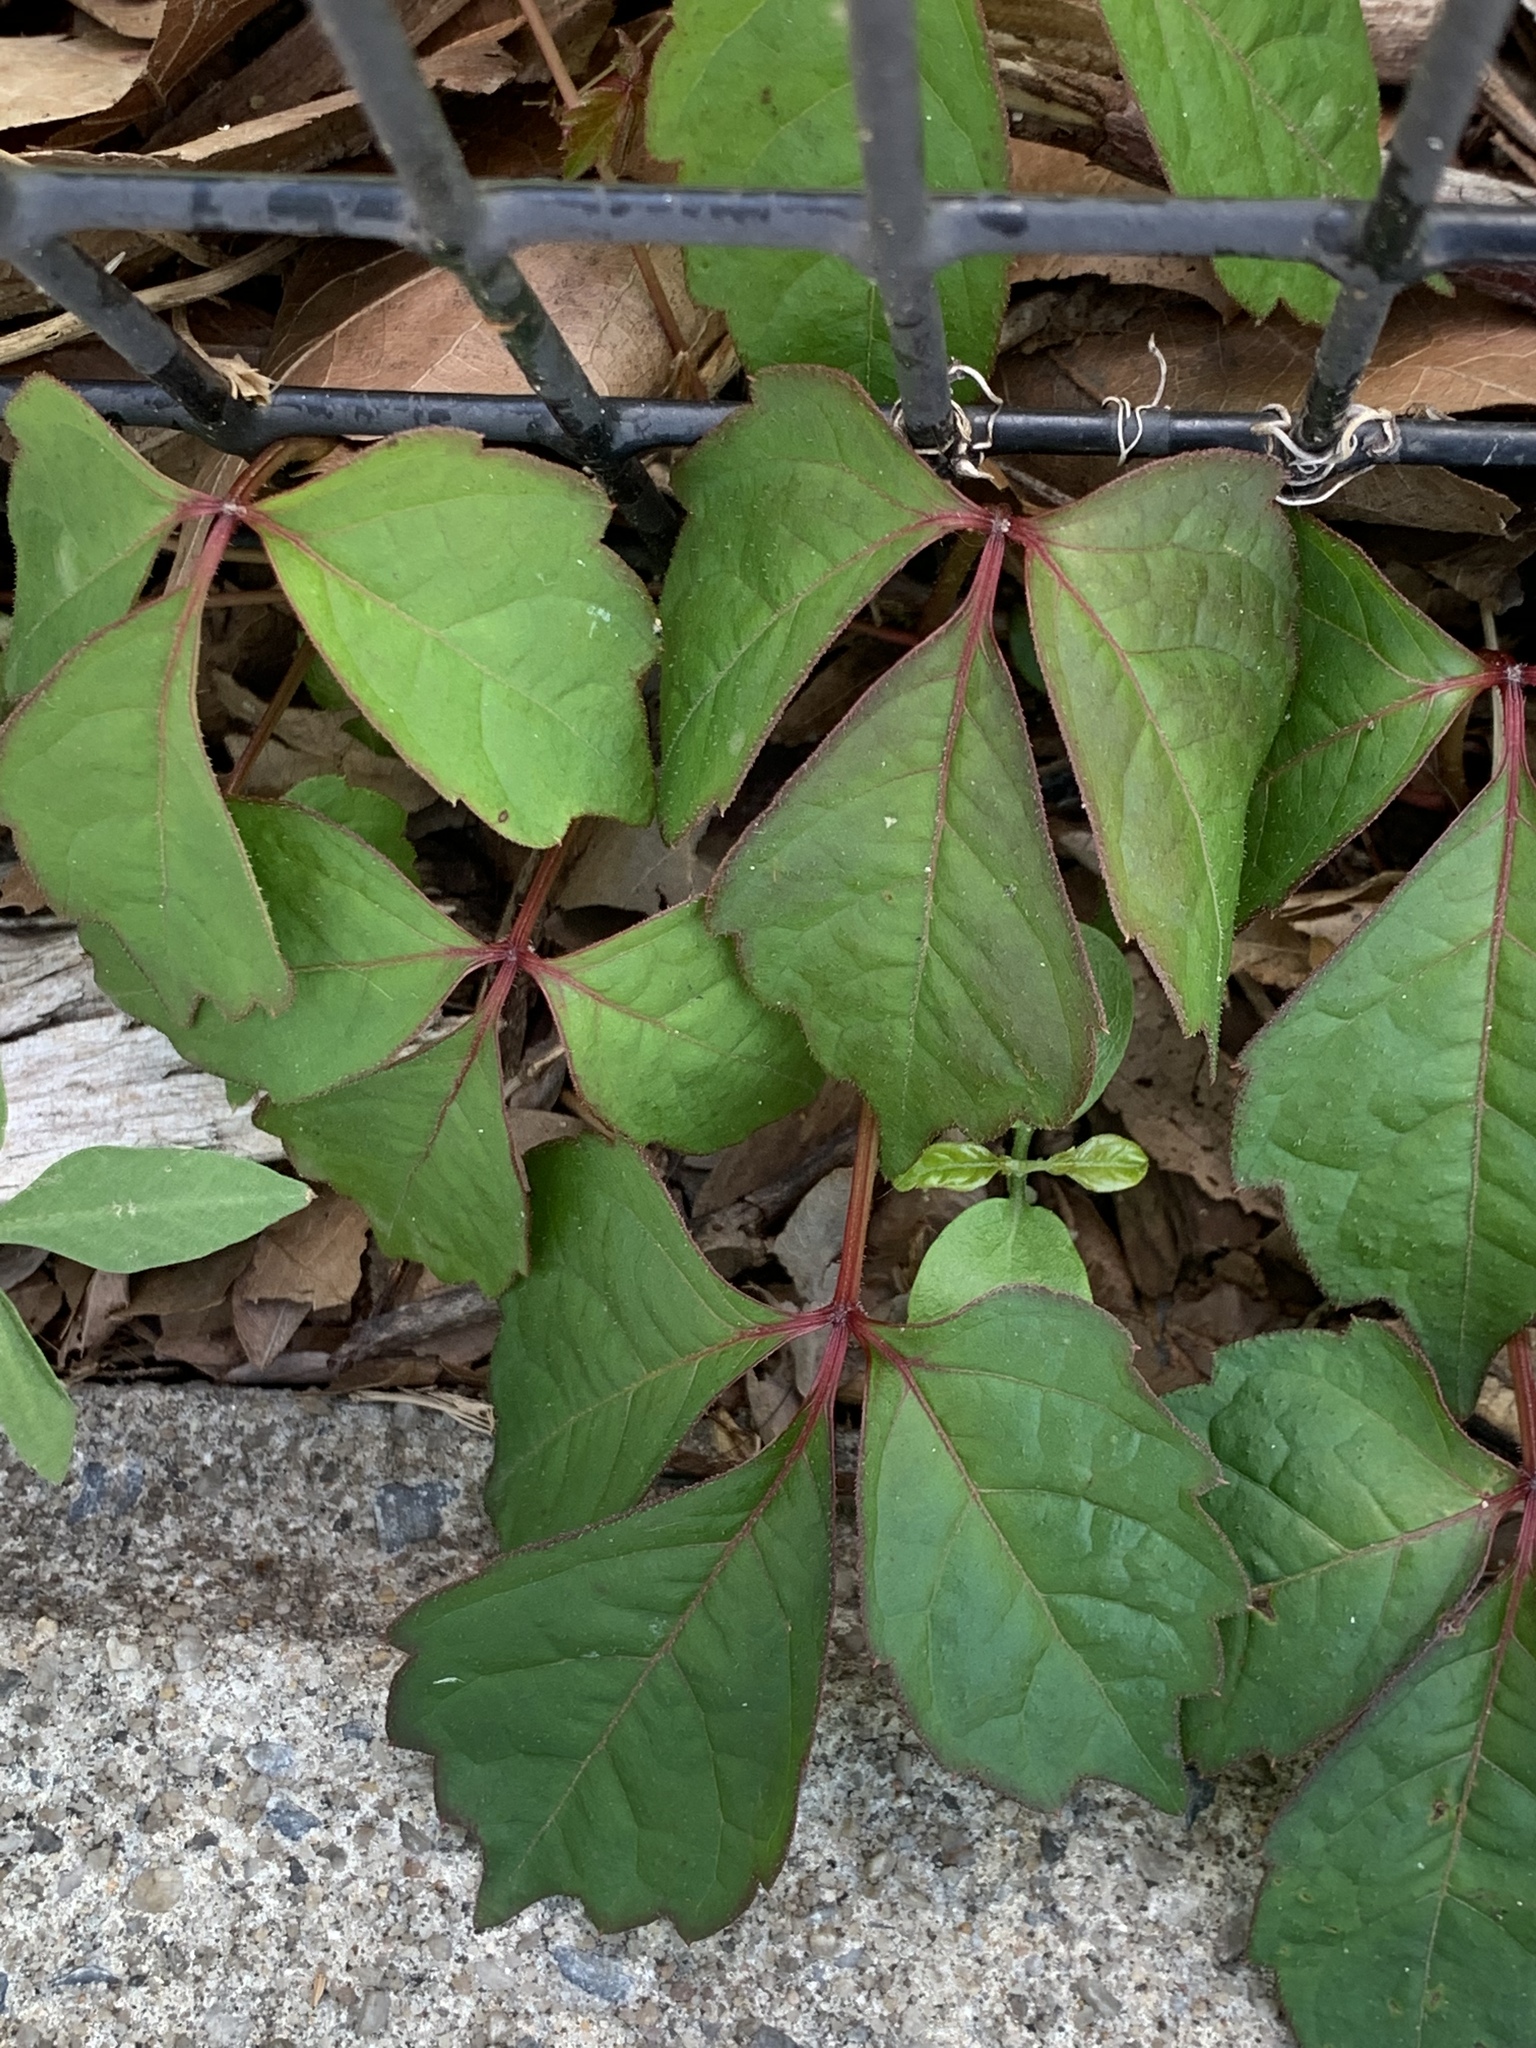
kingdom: Plantae
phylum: Tracheophyta
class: Magnoliopsida
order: Vitales
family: Vitaceae
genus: Parthenocissus
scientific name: Parthenocissus tricuspidata
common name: Boston ivy
